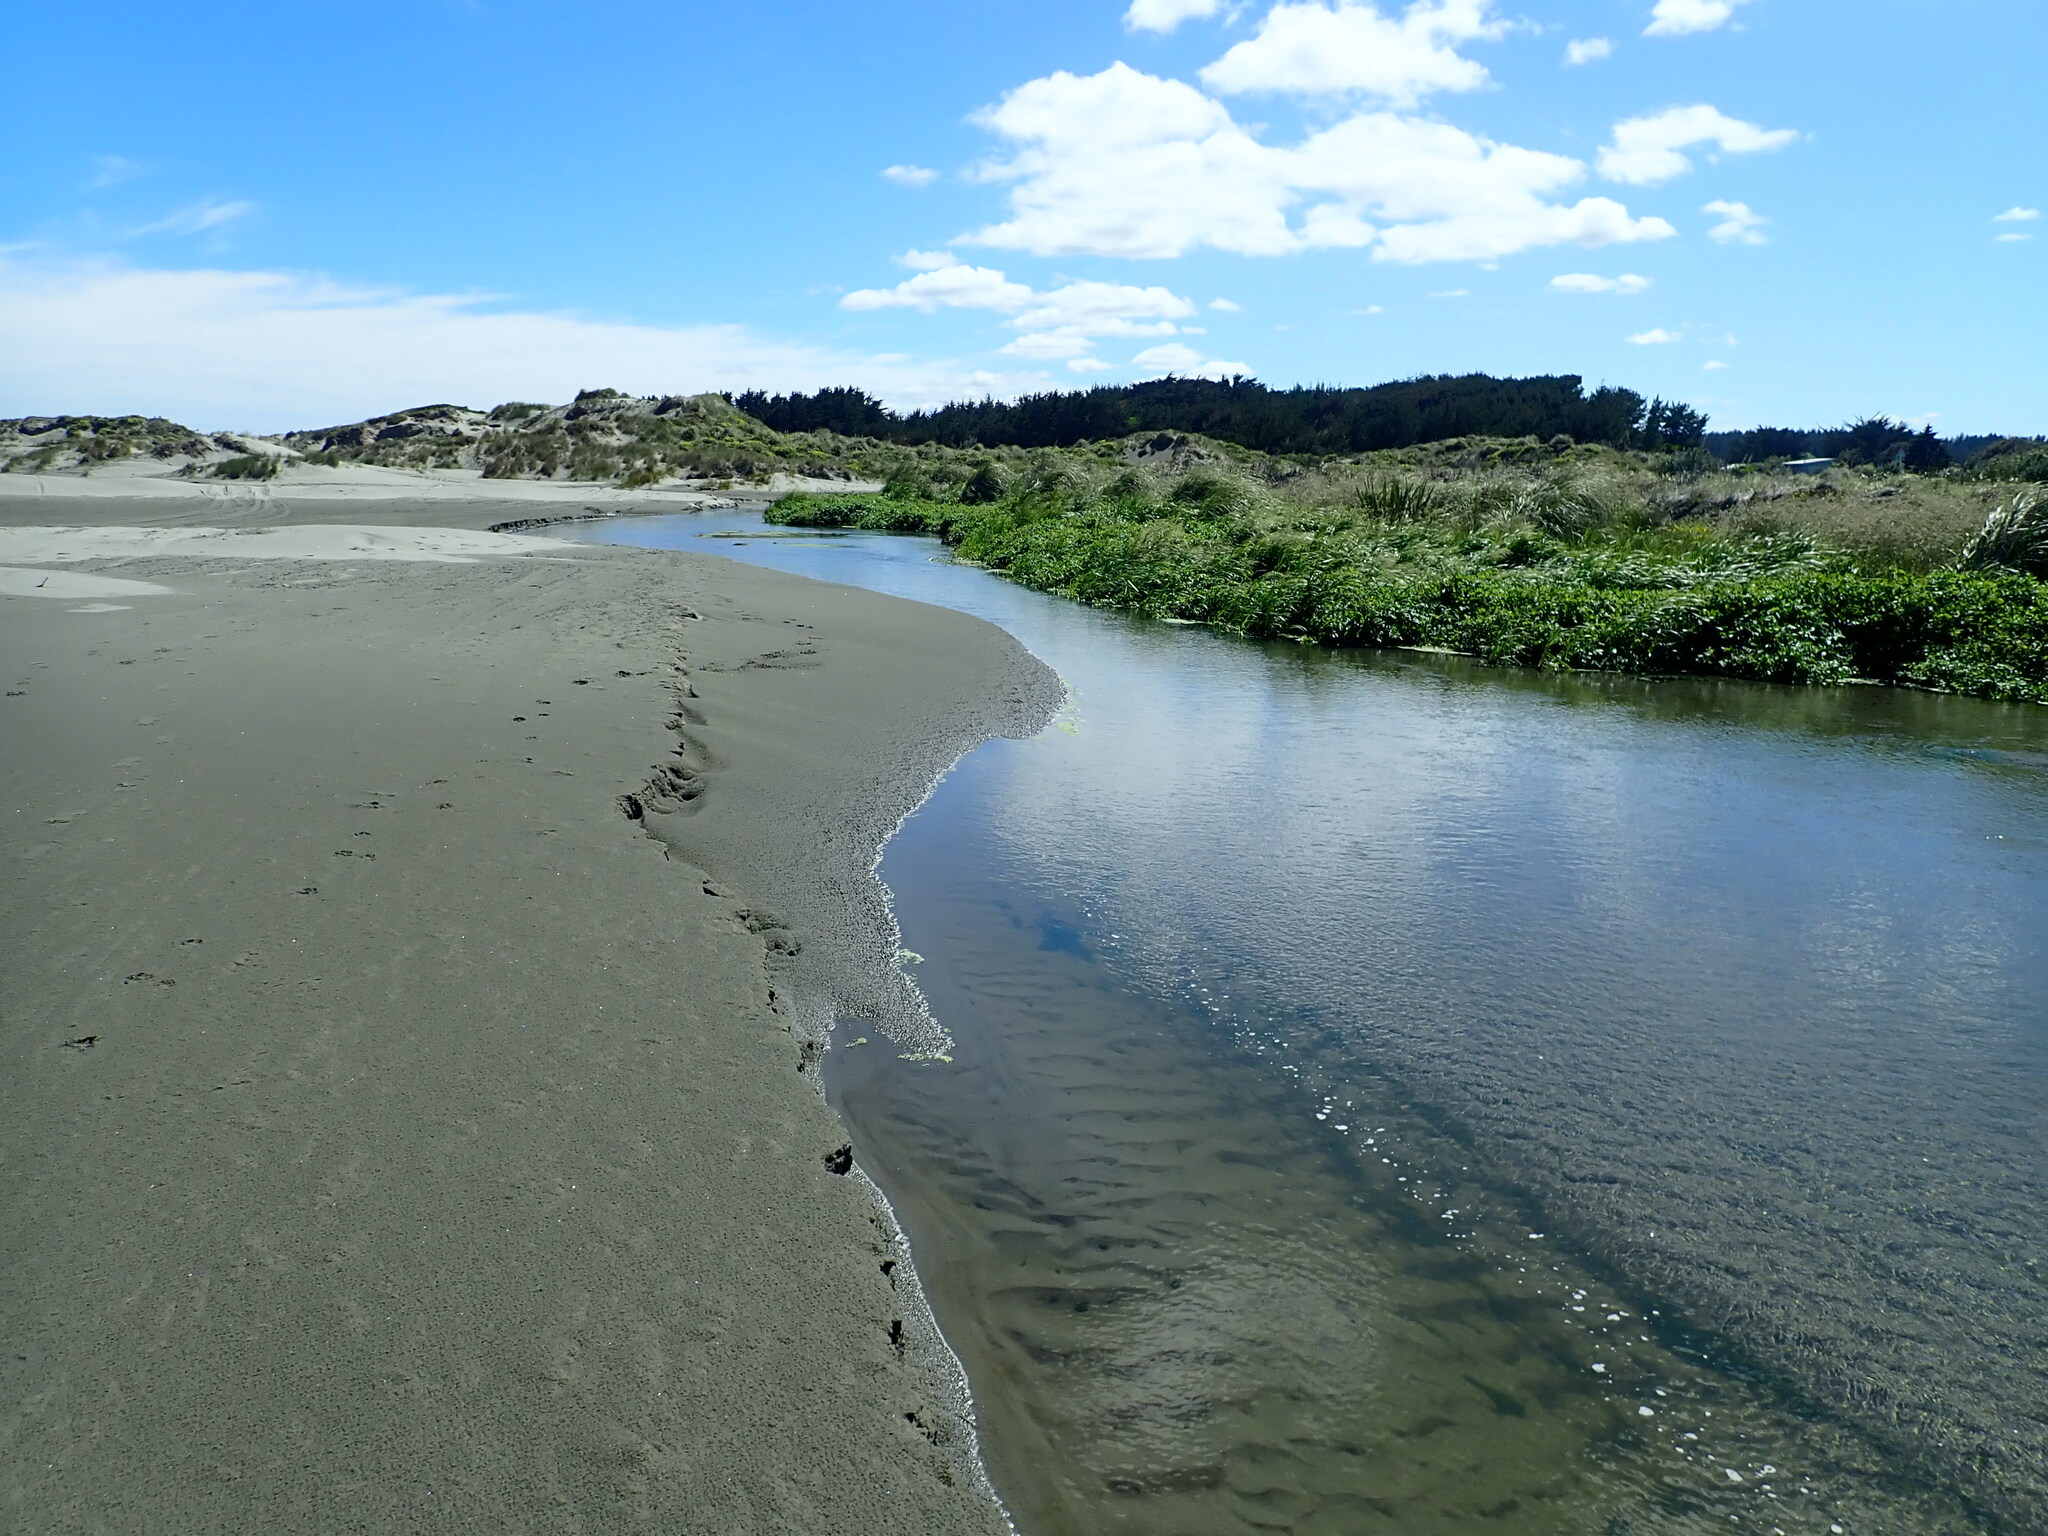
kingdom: Plantae
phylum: Tracheophyta
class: Magnoliopsida
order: Apiales
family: Apiaceae
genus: Helosciadium
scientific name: Helosciadium nodiflorum
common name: Fool's-watercress
